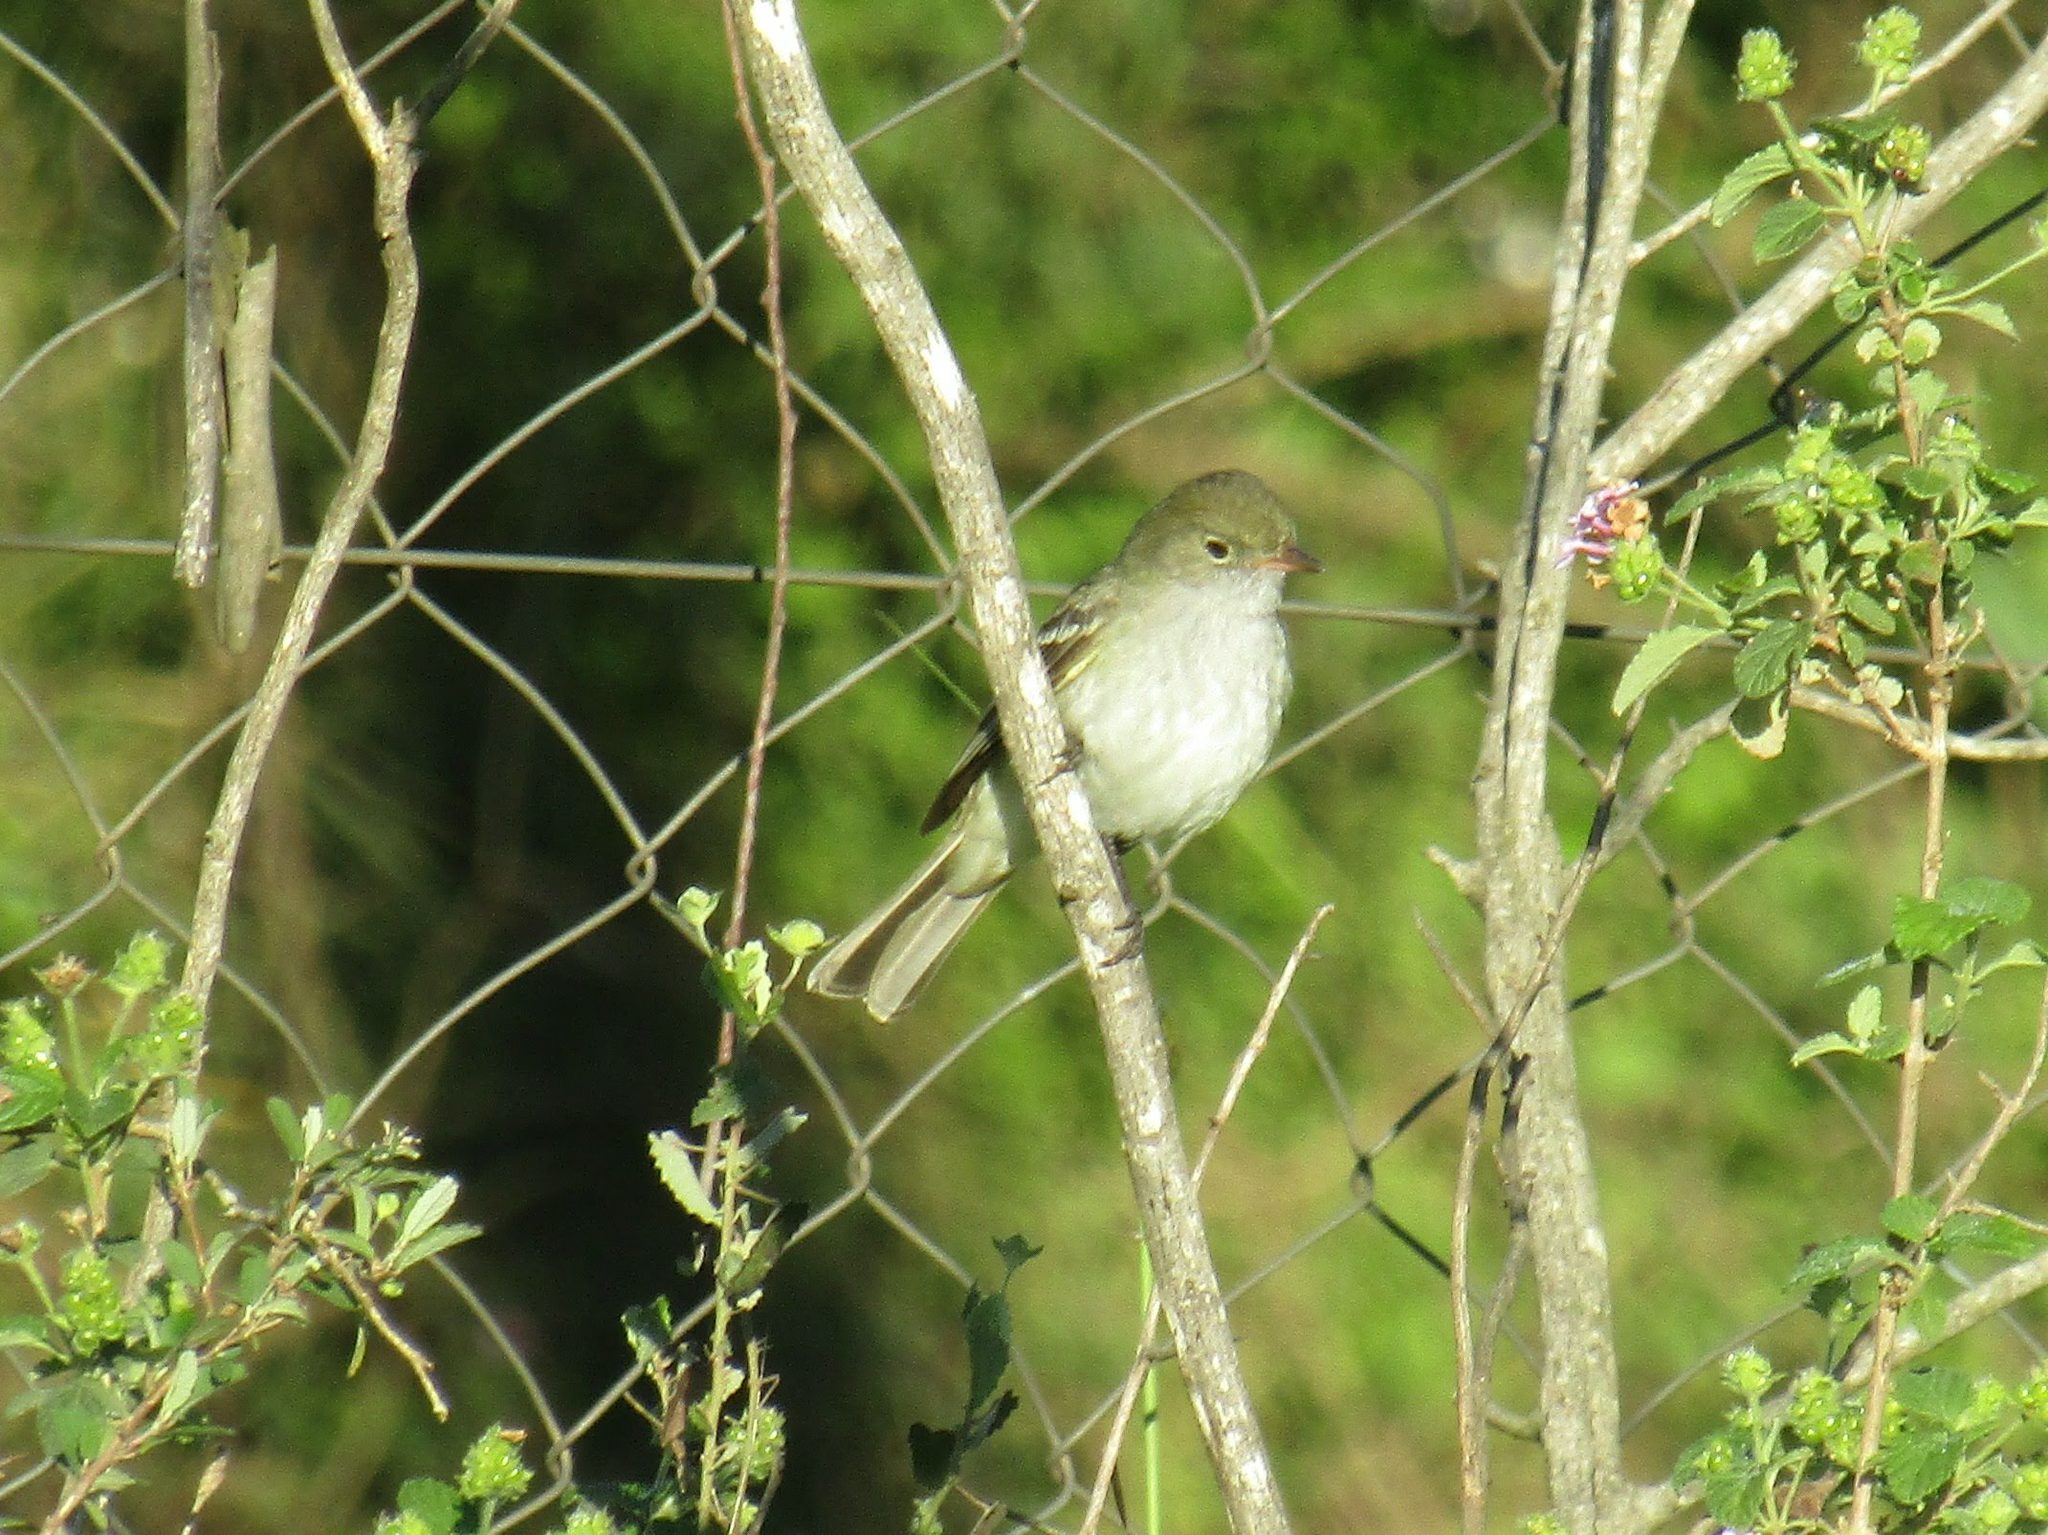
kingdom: Animalia
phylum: Chordata
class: Aves
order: Passeriformes
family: Tyrannidae
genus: Elaenia
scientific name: Elaenia parvirostris
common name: Small-billed elaenia
